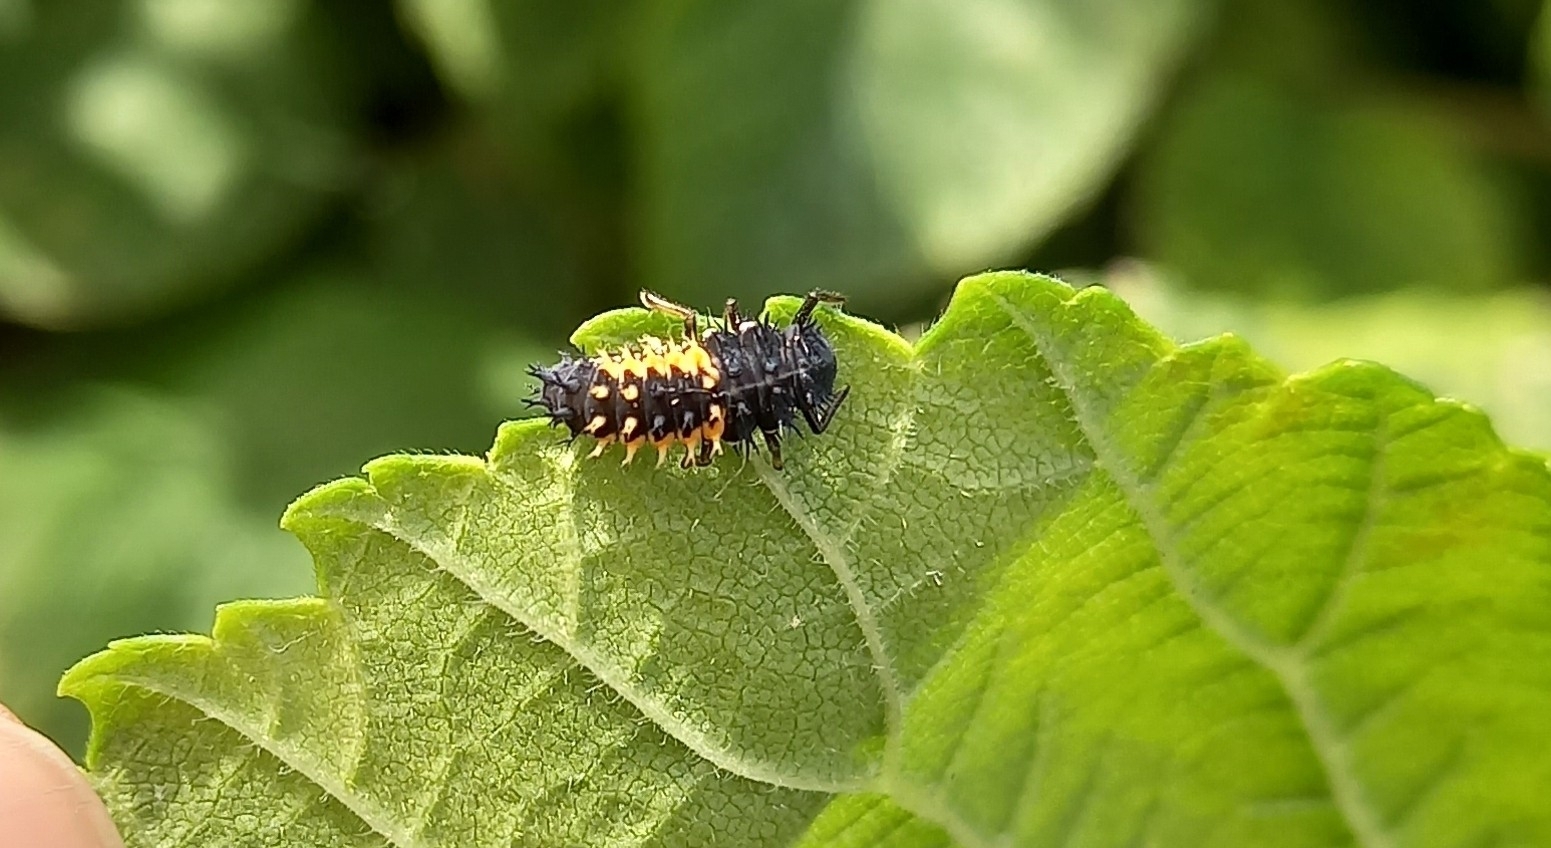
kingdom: Animalia
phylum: Arthropoda
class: Insecta
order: Coleoptera
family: Coccinellidae
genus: Harmonia
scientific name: Harmonia axyridis
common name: Harlequin ladybird
